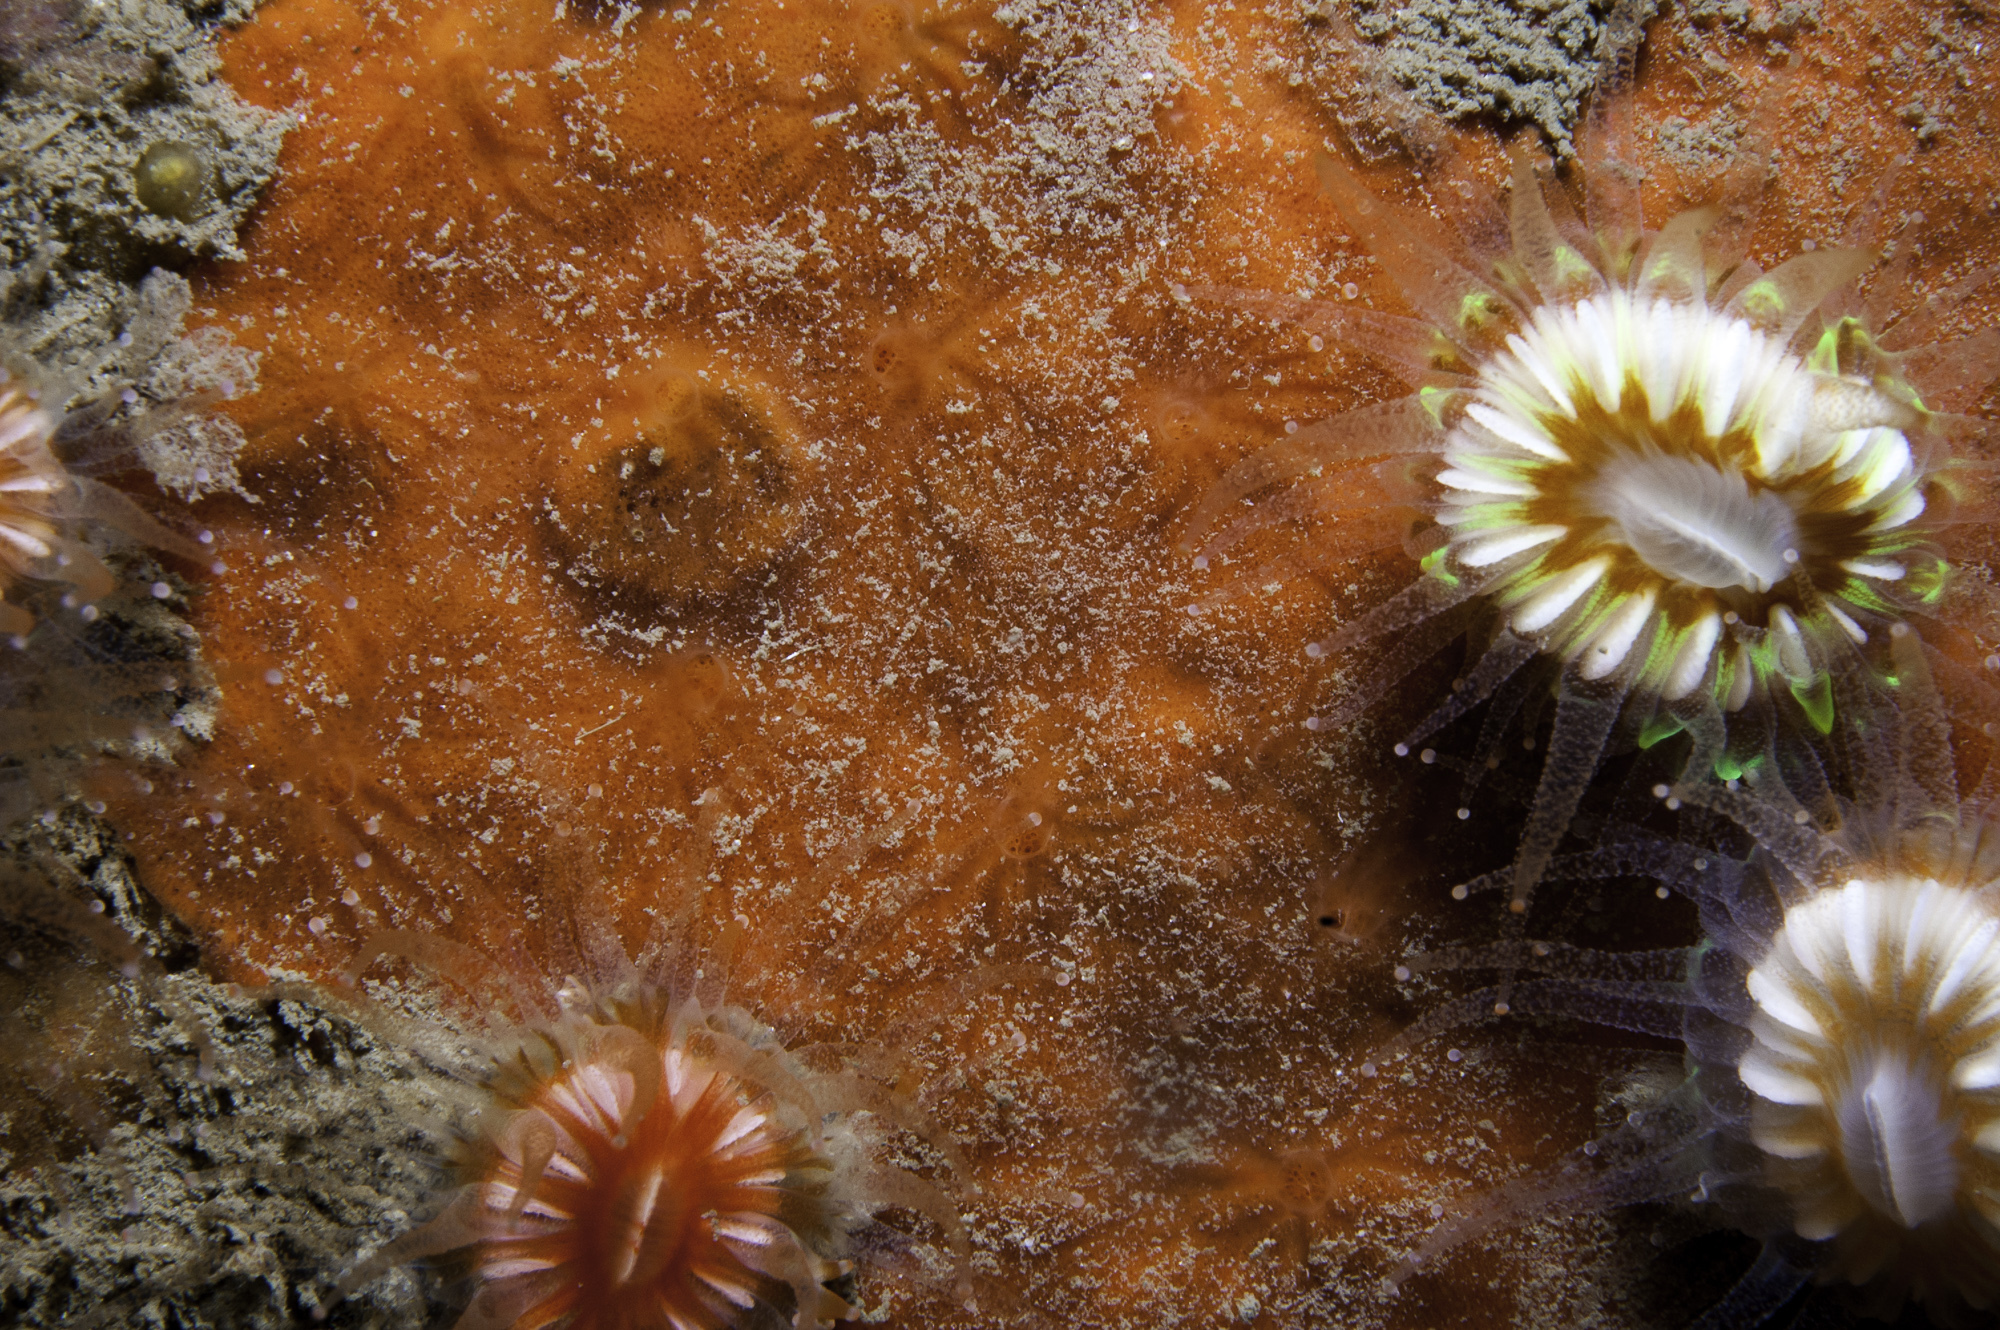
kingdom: Animalia
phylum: Porifera
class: Demospongiae
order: Poecilosclerida
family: Microcionidae
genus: Clathria
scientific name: Clathria strepsitoxa
